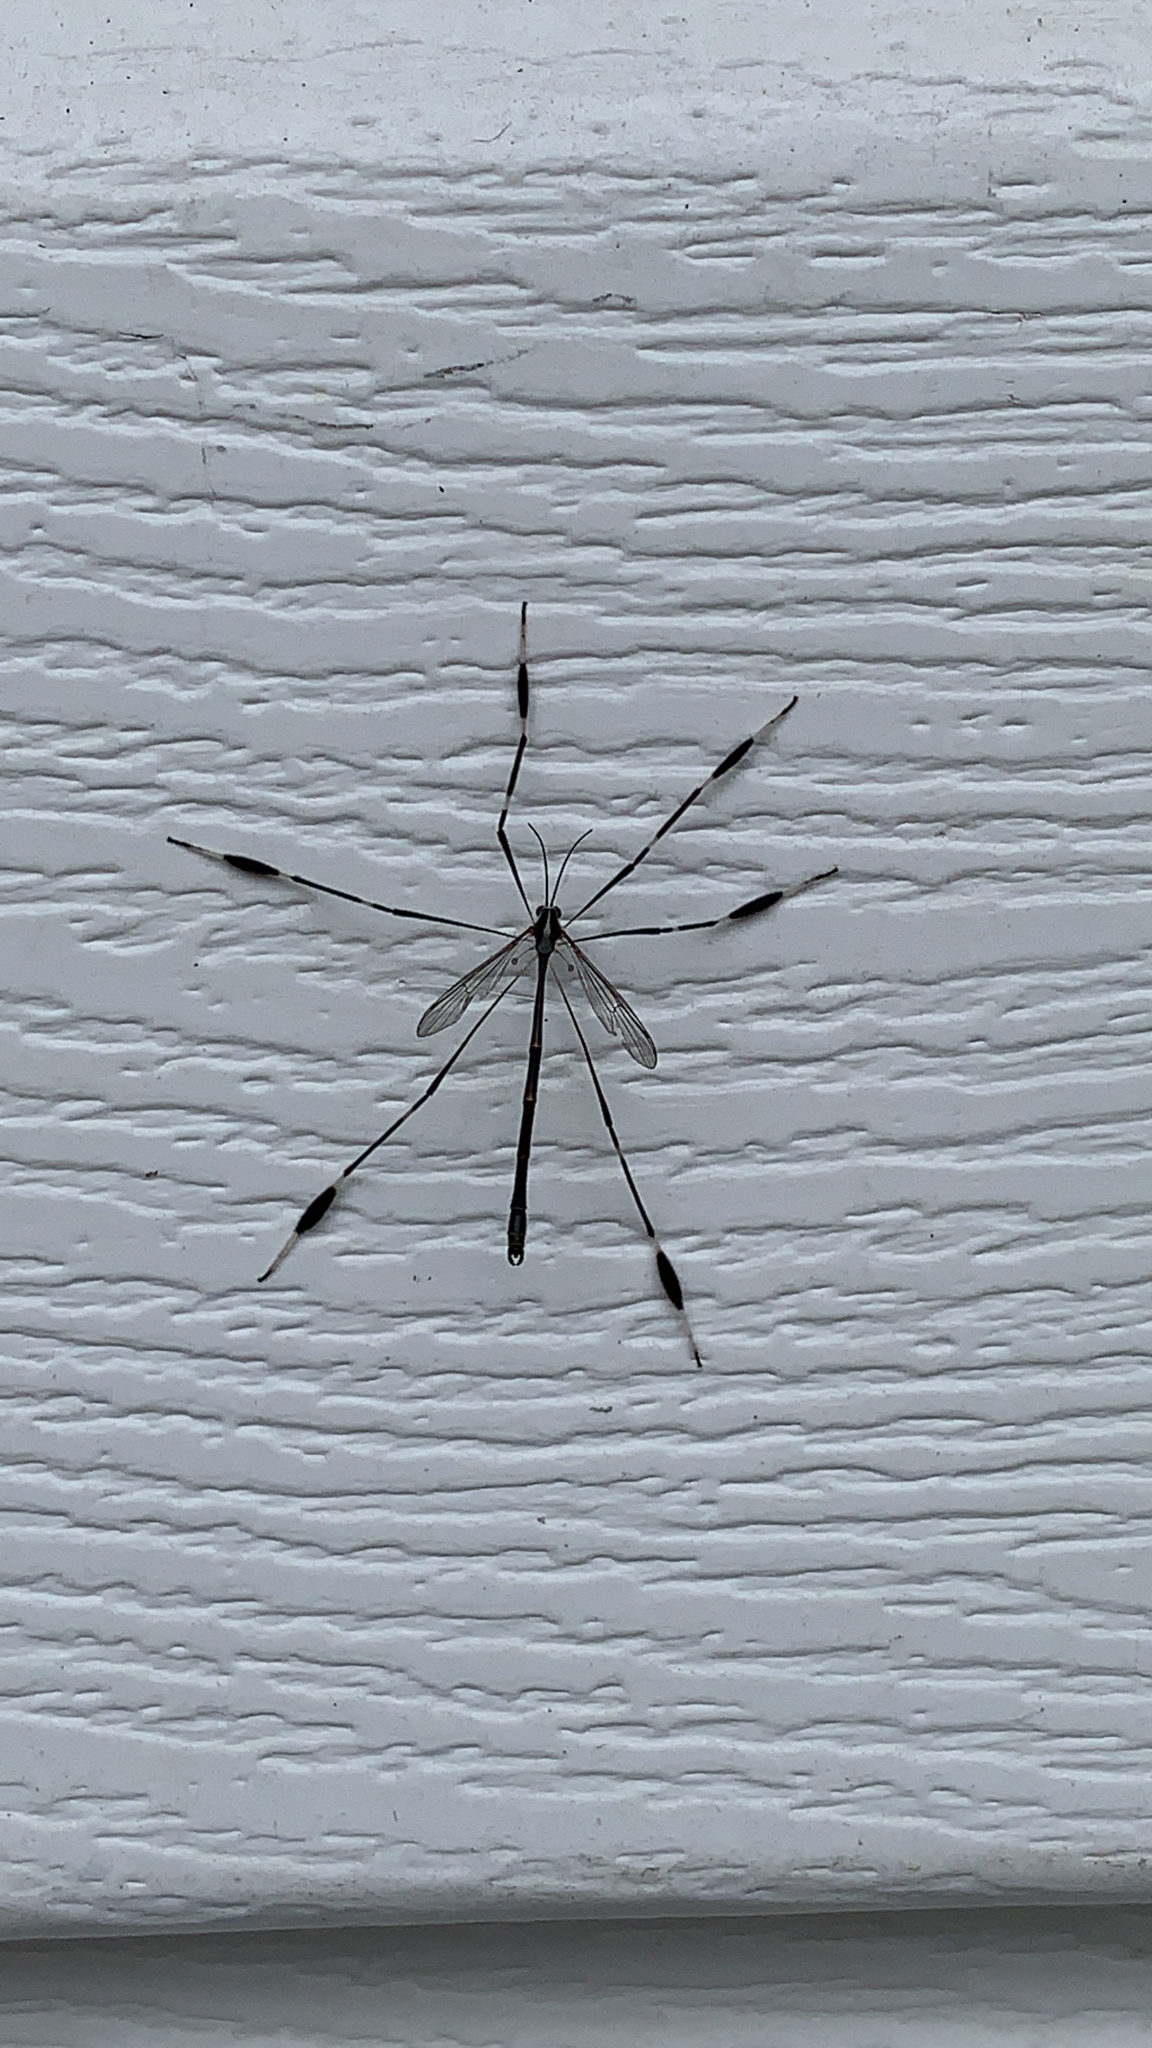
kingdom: Animalia
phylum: Arthropoda
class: Insecta
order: Diptera
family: Ptychopteridae
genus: Bittacomorpha
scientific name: Bittacomorpha clavipes
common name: Eastern phantom crane fly
